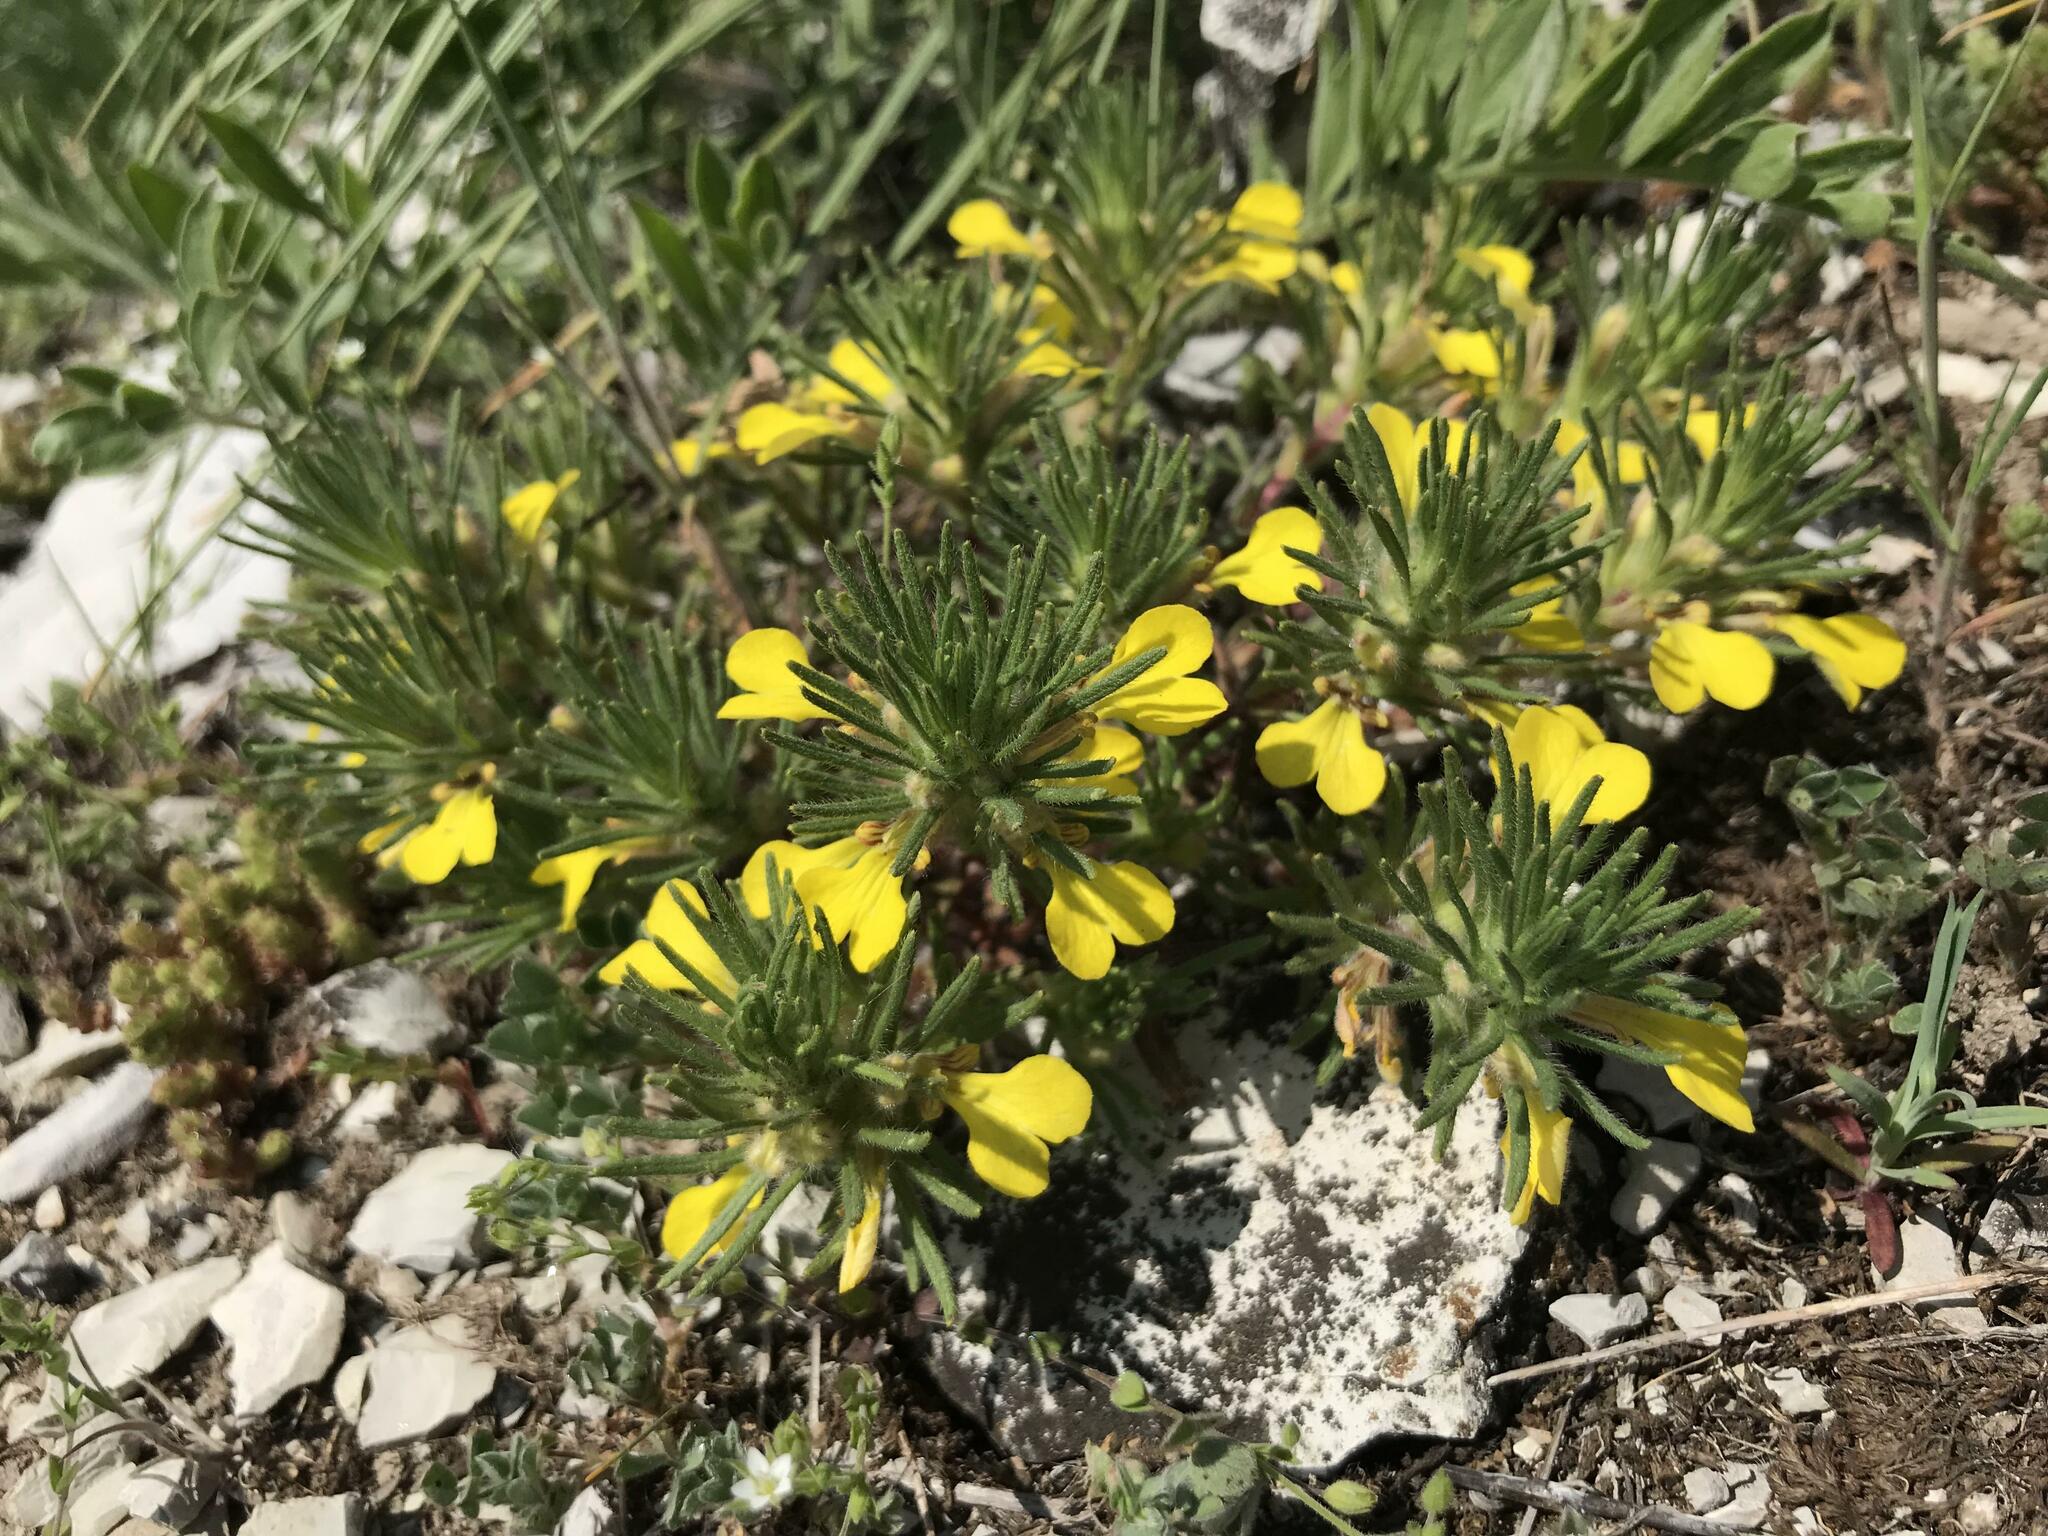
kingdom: Plantae
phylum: Tracheophyta
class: Magnoliopsida
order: Lamiales
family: Lamiaceae
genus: Ajuga
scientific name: Ajuga chamaepitys
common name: Ground-pine
